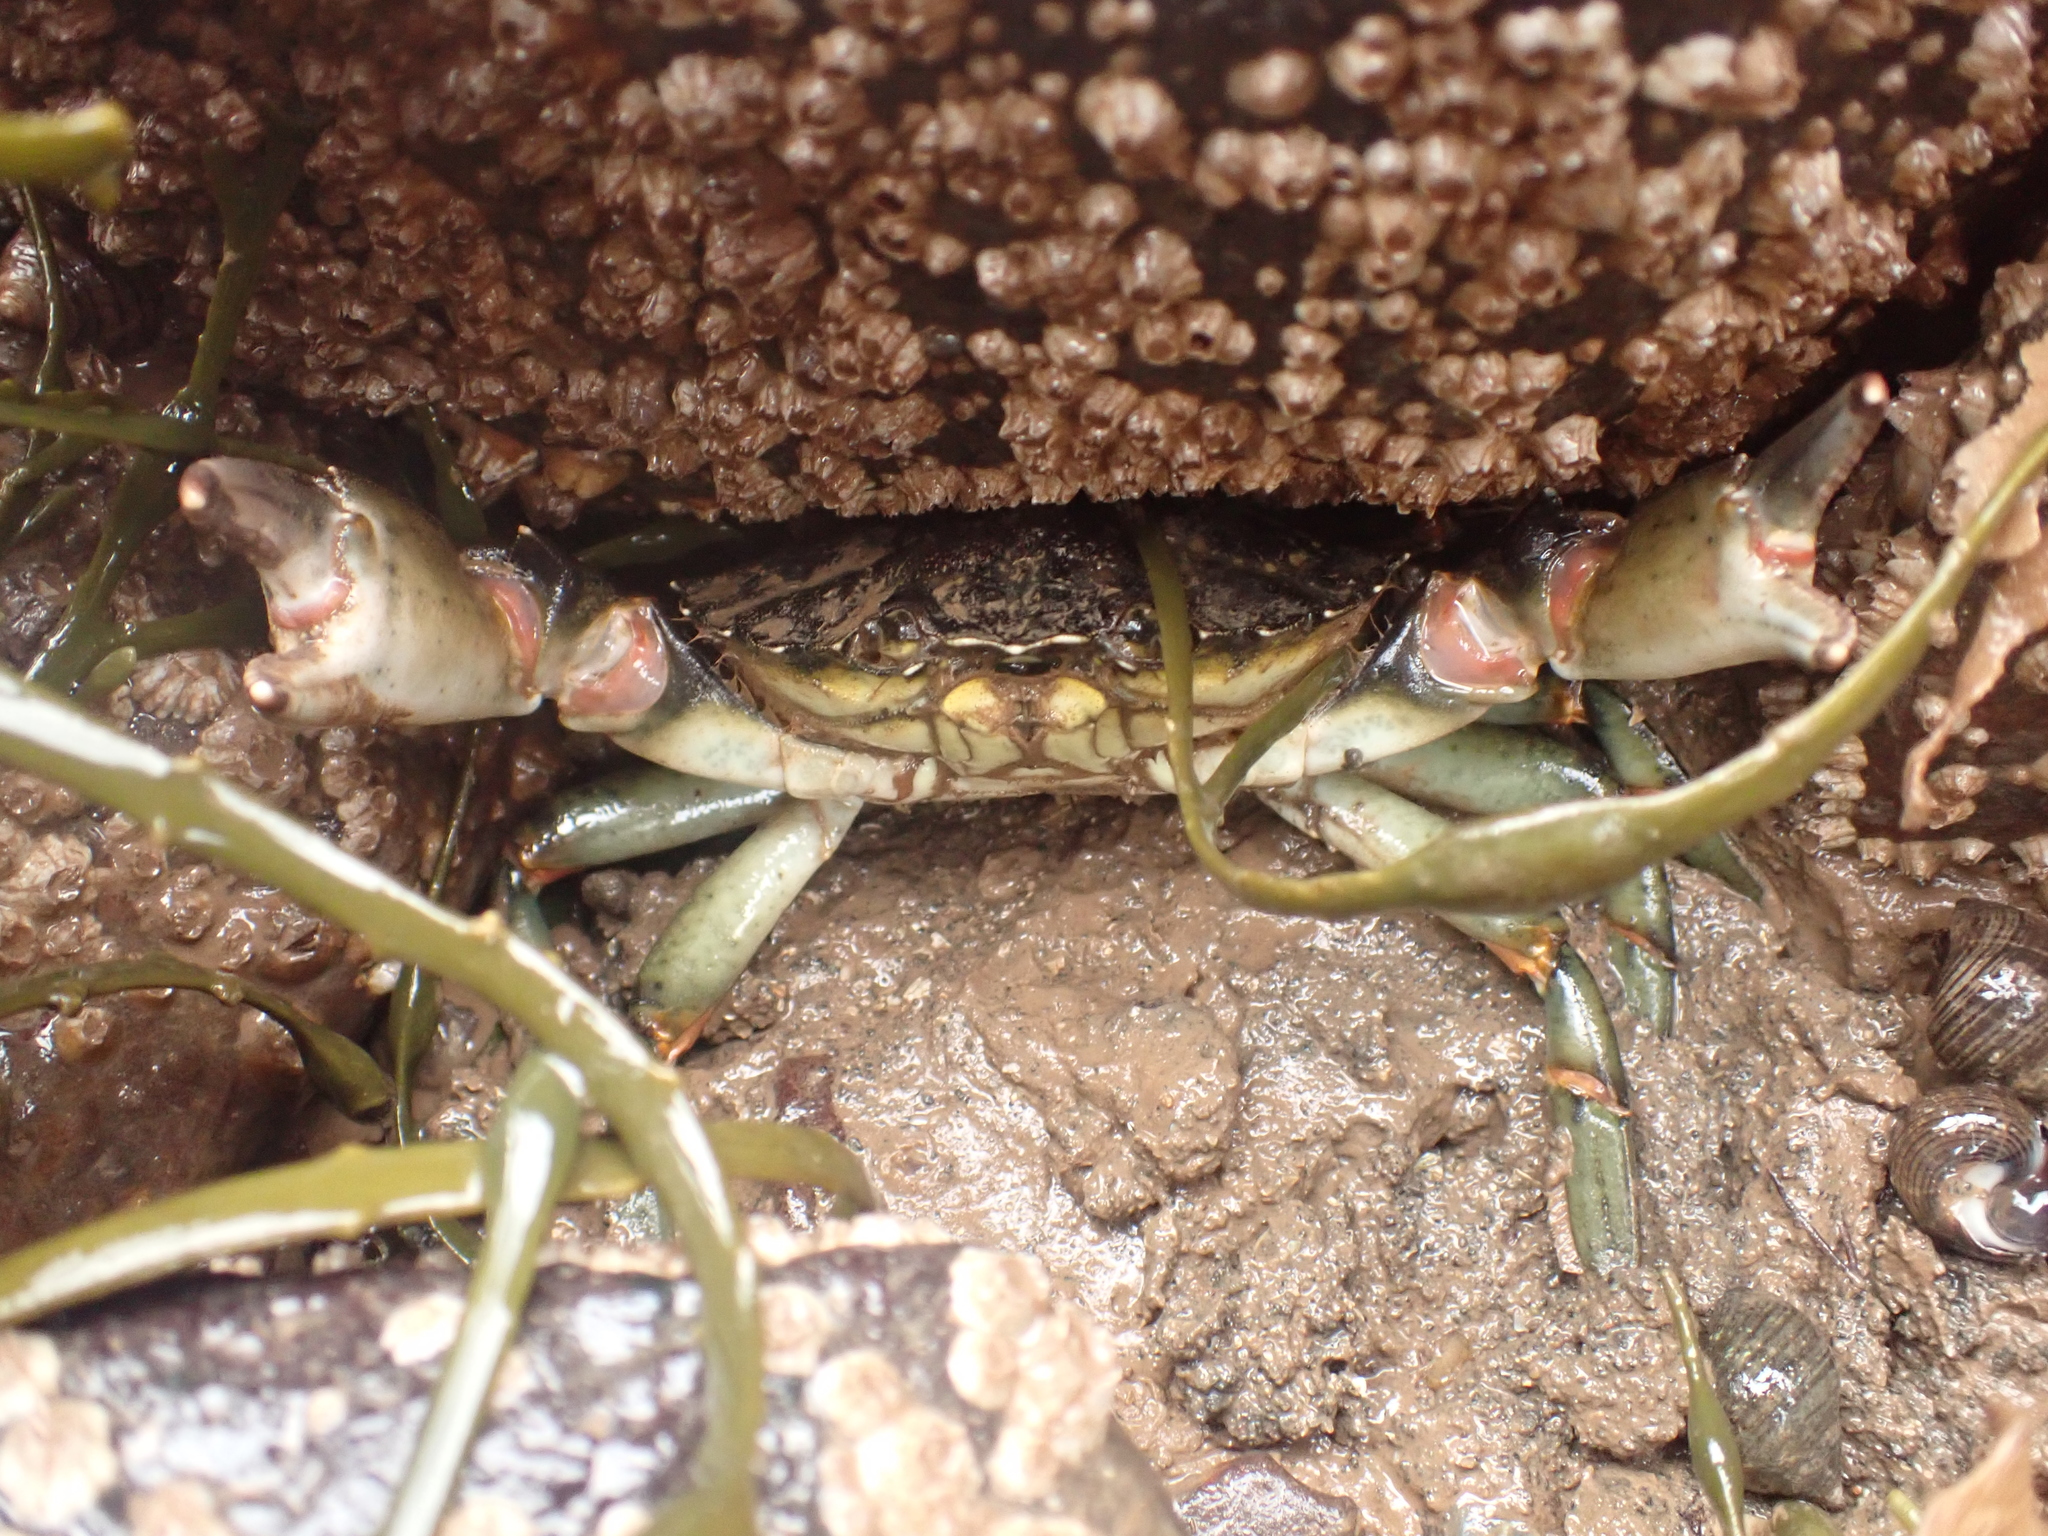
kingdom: Animalia
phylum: Arthropoda
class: Malacostraca
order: Decapoda
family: Carcinidae
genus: Carcinus
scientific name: Carcinus maenas
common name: European green crab
